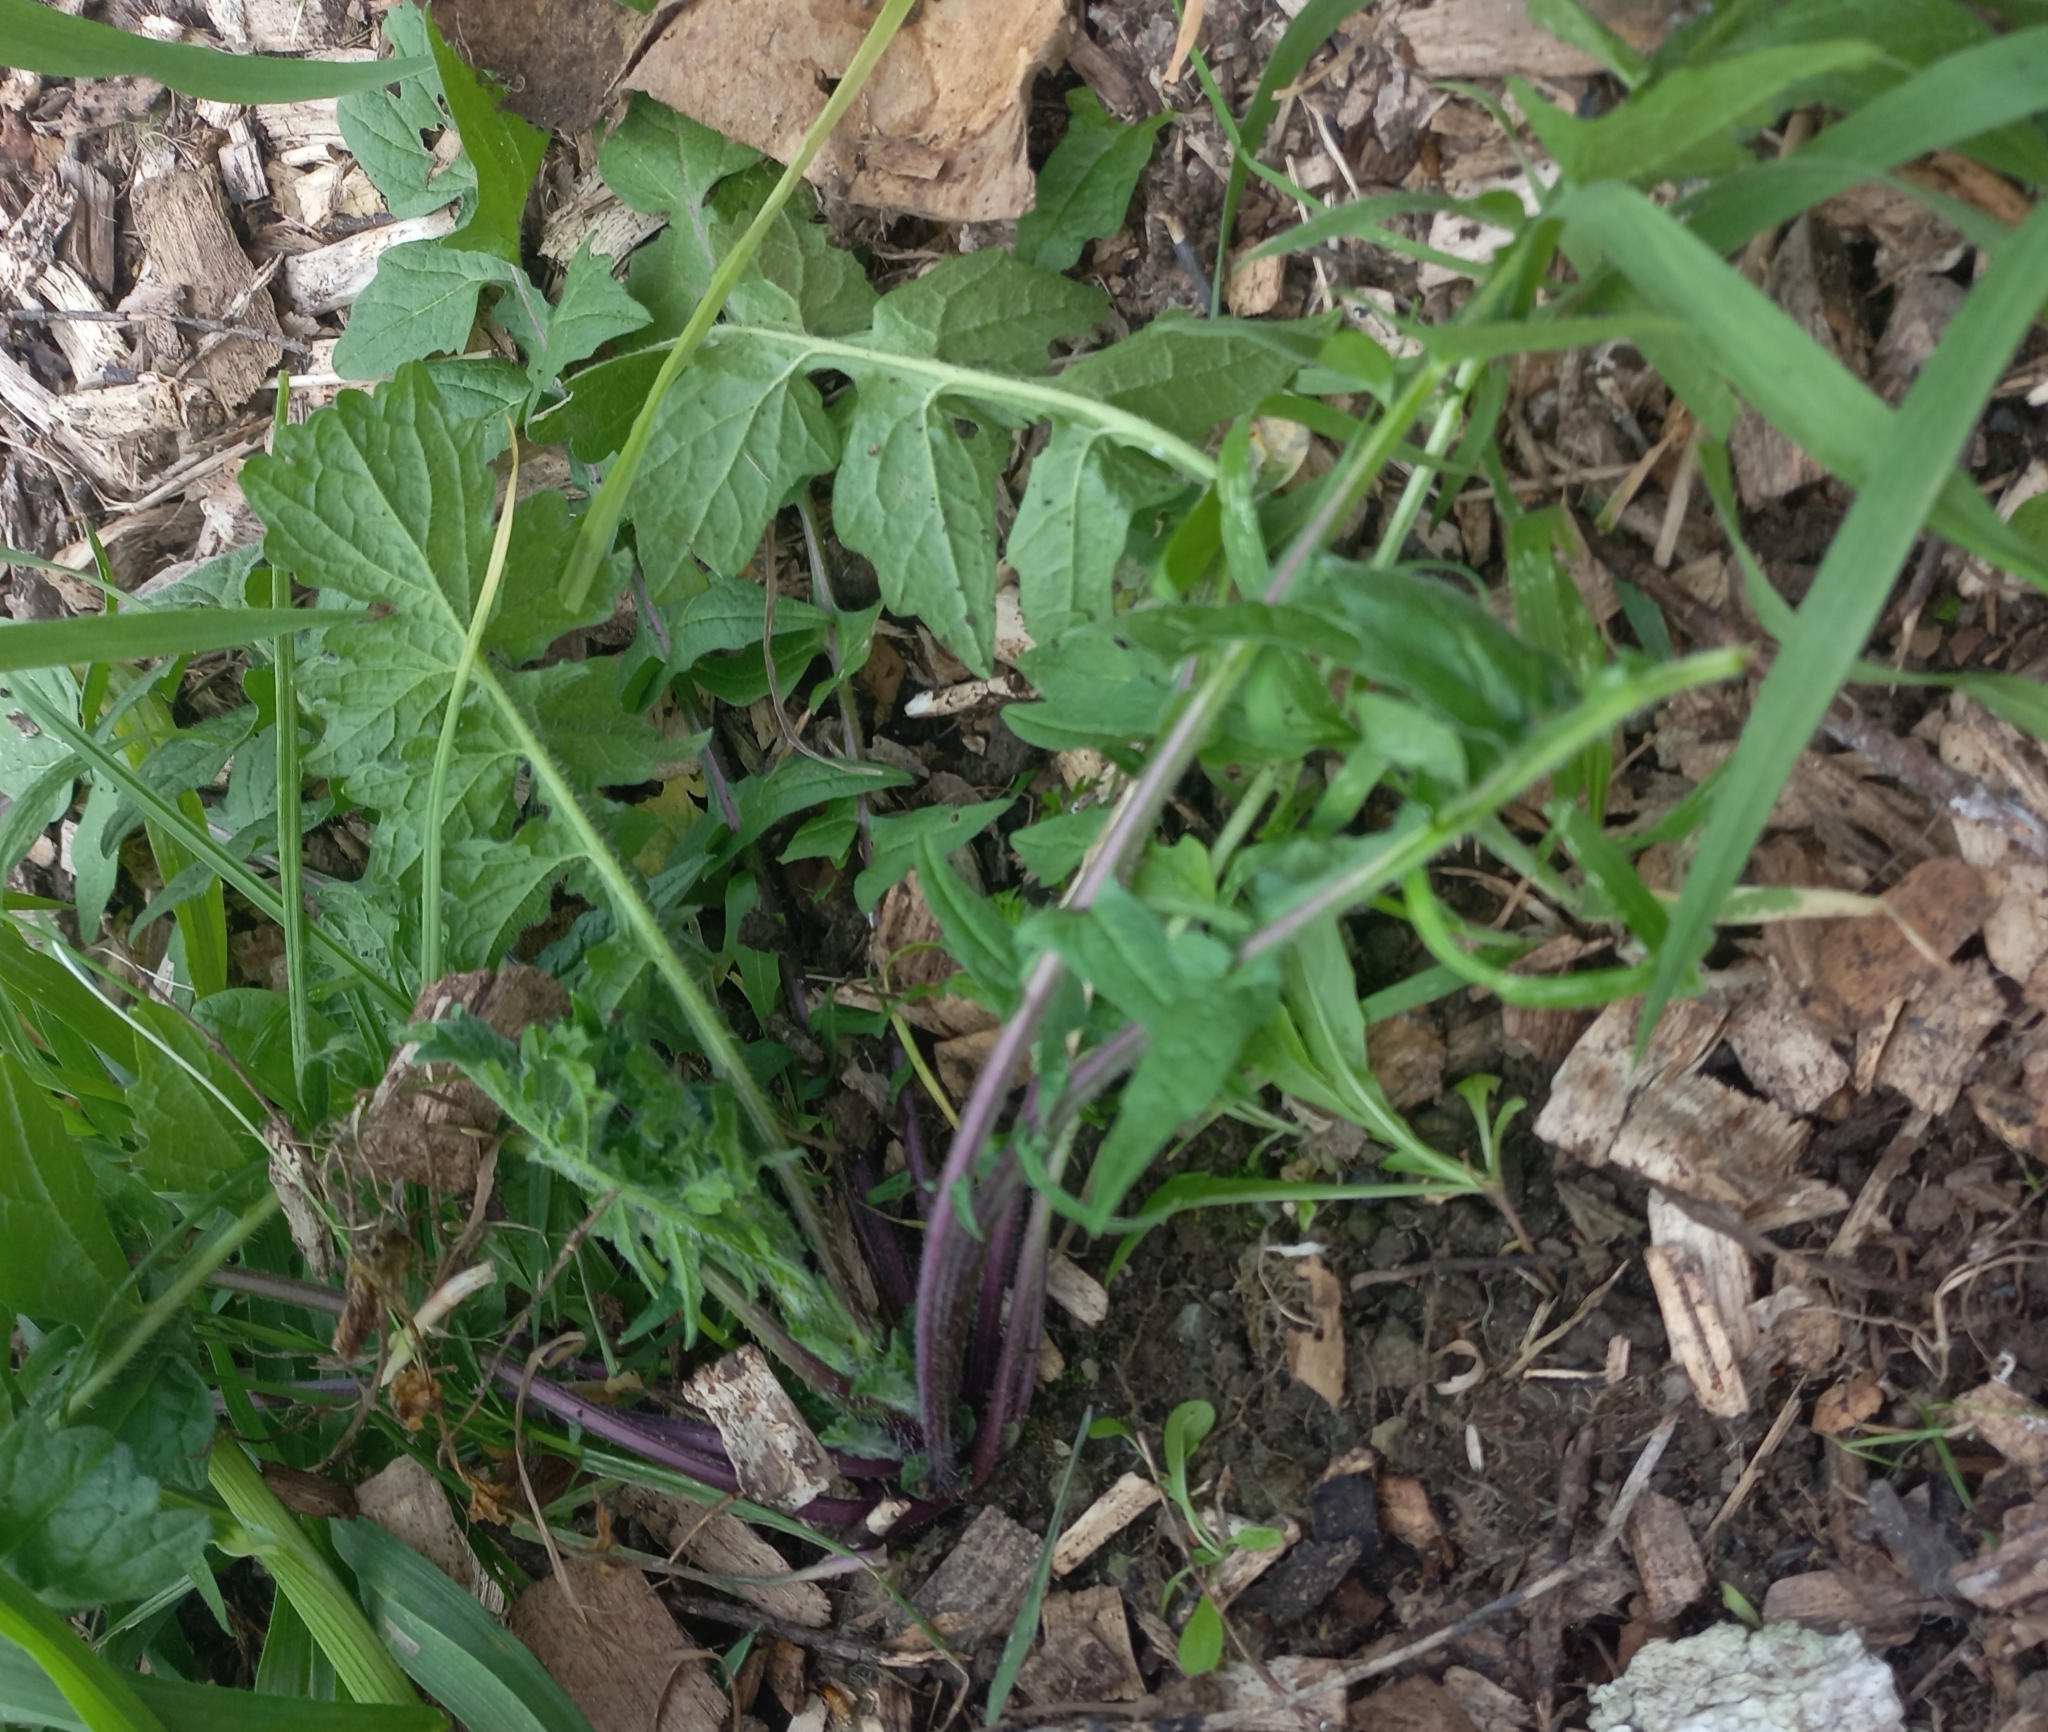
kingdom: Plantae
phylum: Tracheophyta
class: Magnoliopsida
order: Brassicales
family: Brassicaceae
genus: Sisymbrium
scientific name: Sisymbrium officinale
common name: Hedge mustard
